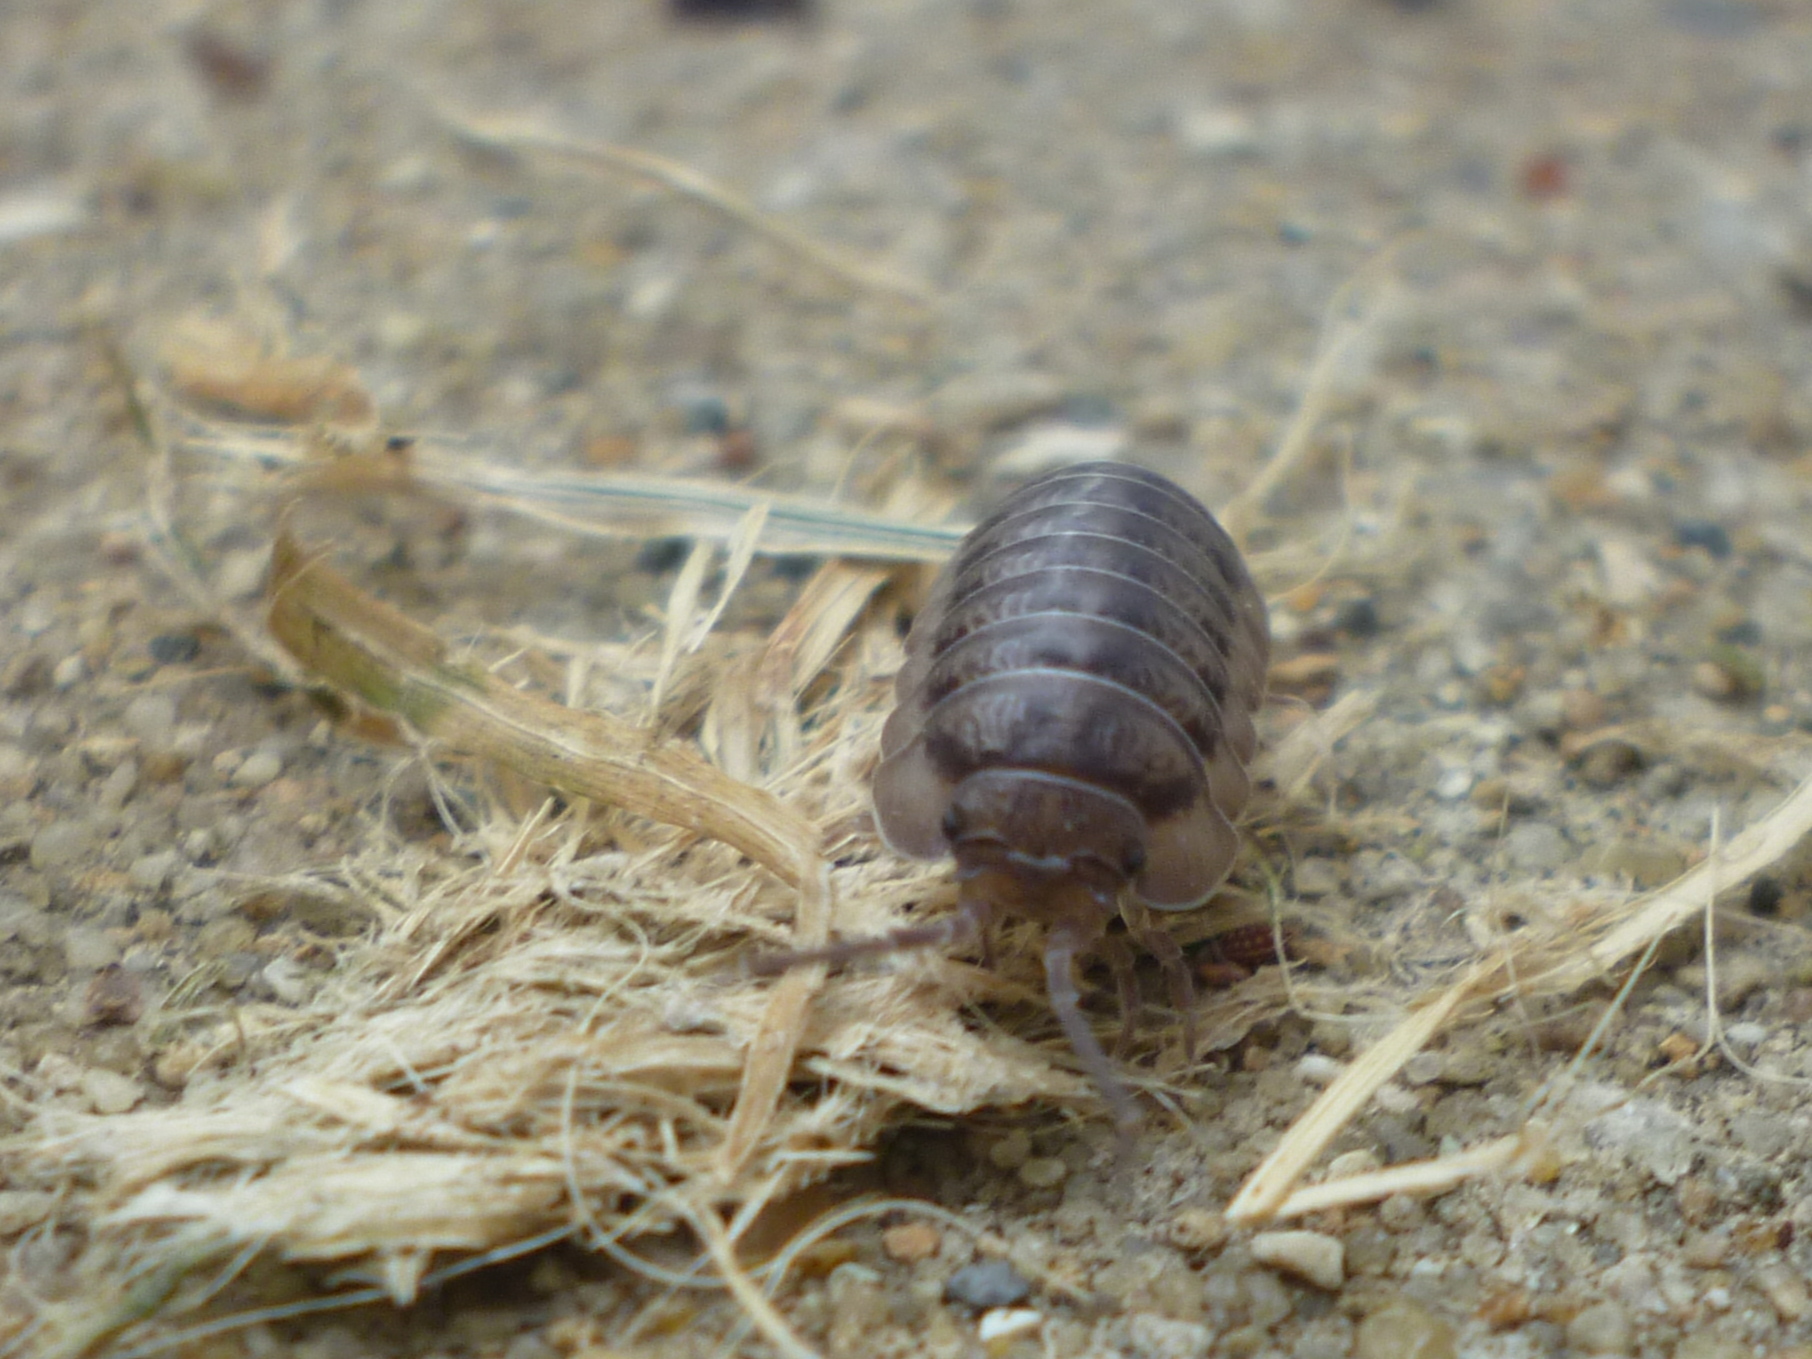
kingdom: Animalia
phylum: Arthropoda
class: Malacostraca
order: Isopoda
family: Armadillidiidae
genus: Armadillidium
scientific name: Armadillidium nasatum
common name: Isopod
